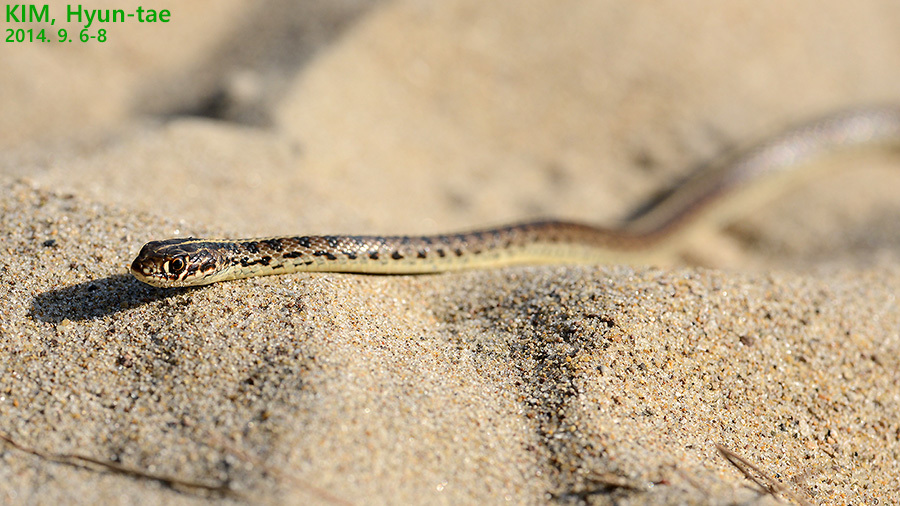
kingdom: Animalia
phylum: Chordata
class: Squamata
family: Colubridae
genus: Orientocoluber
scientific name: Orientocoluber spinalis
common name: Slender racer
